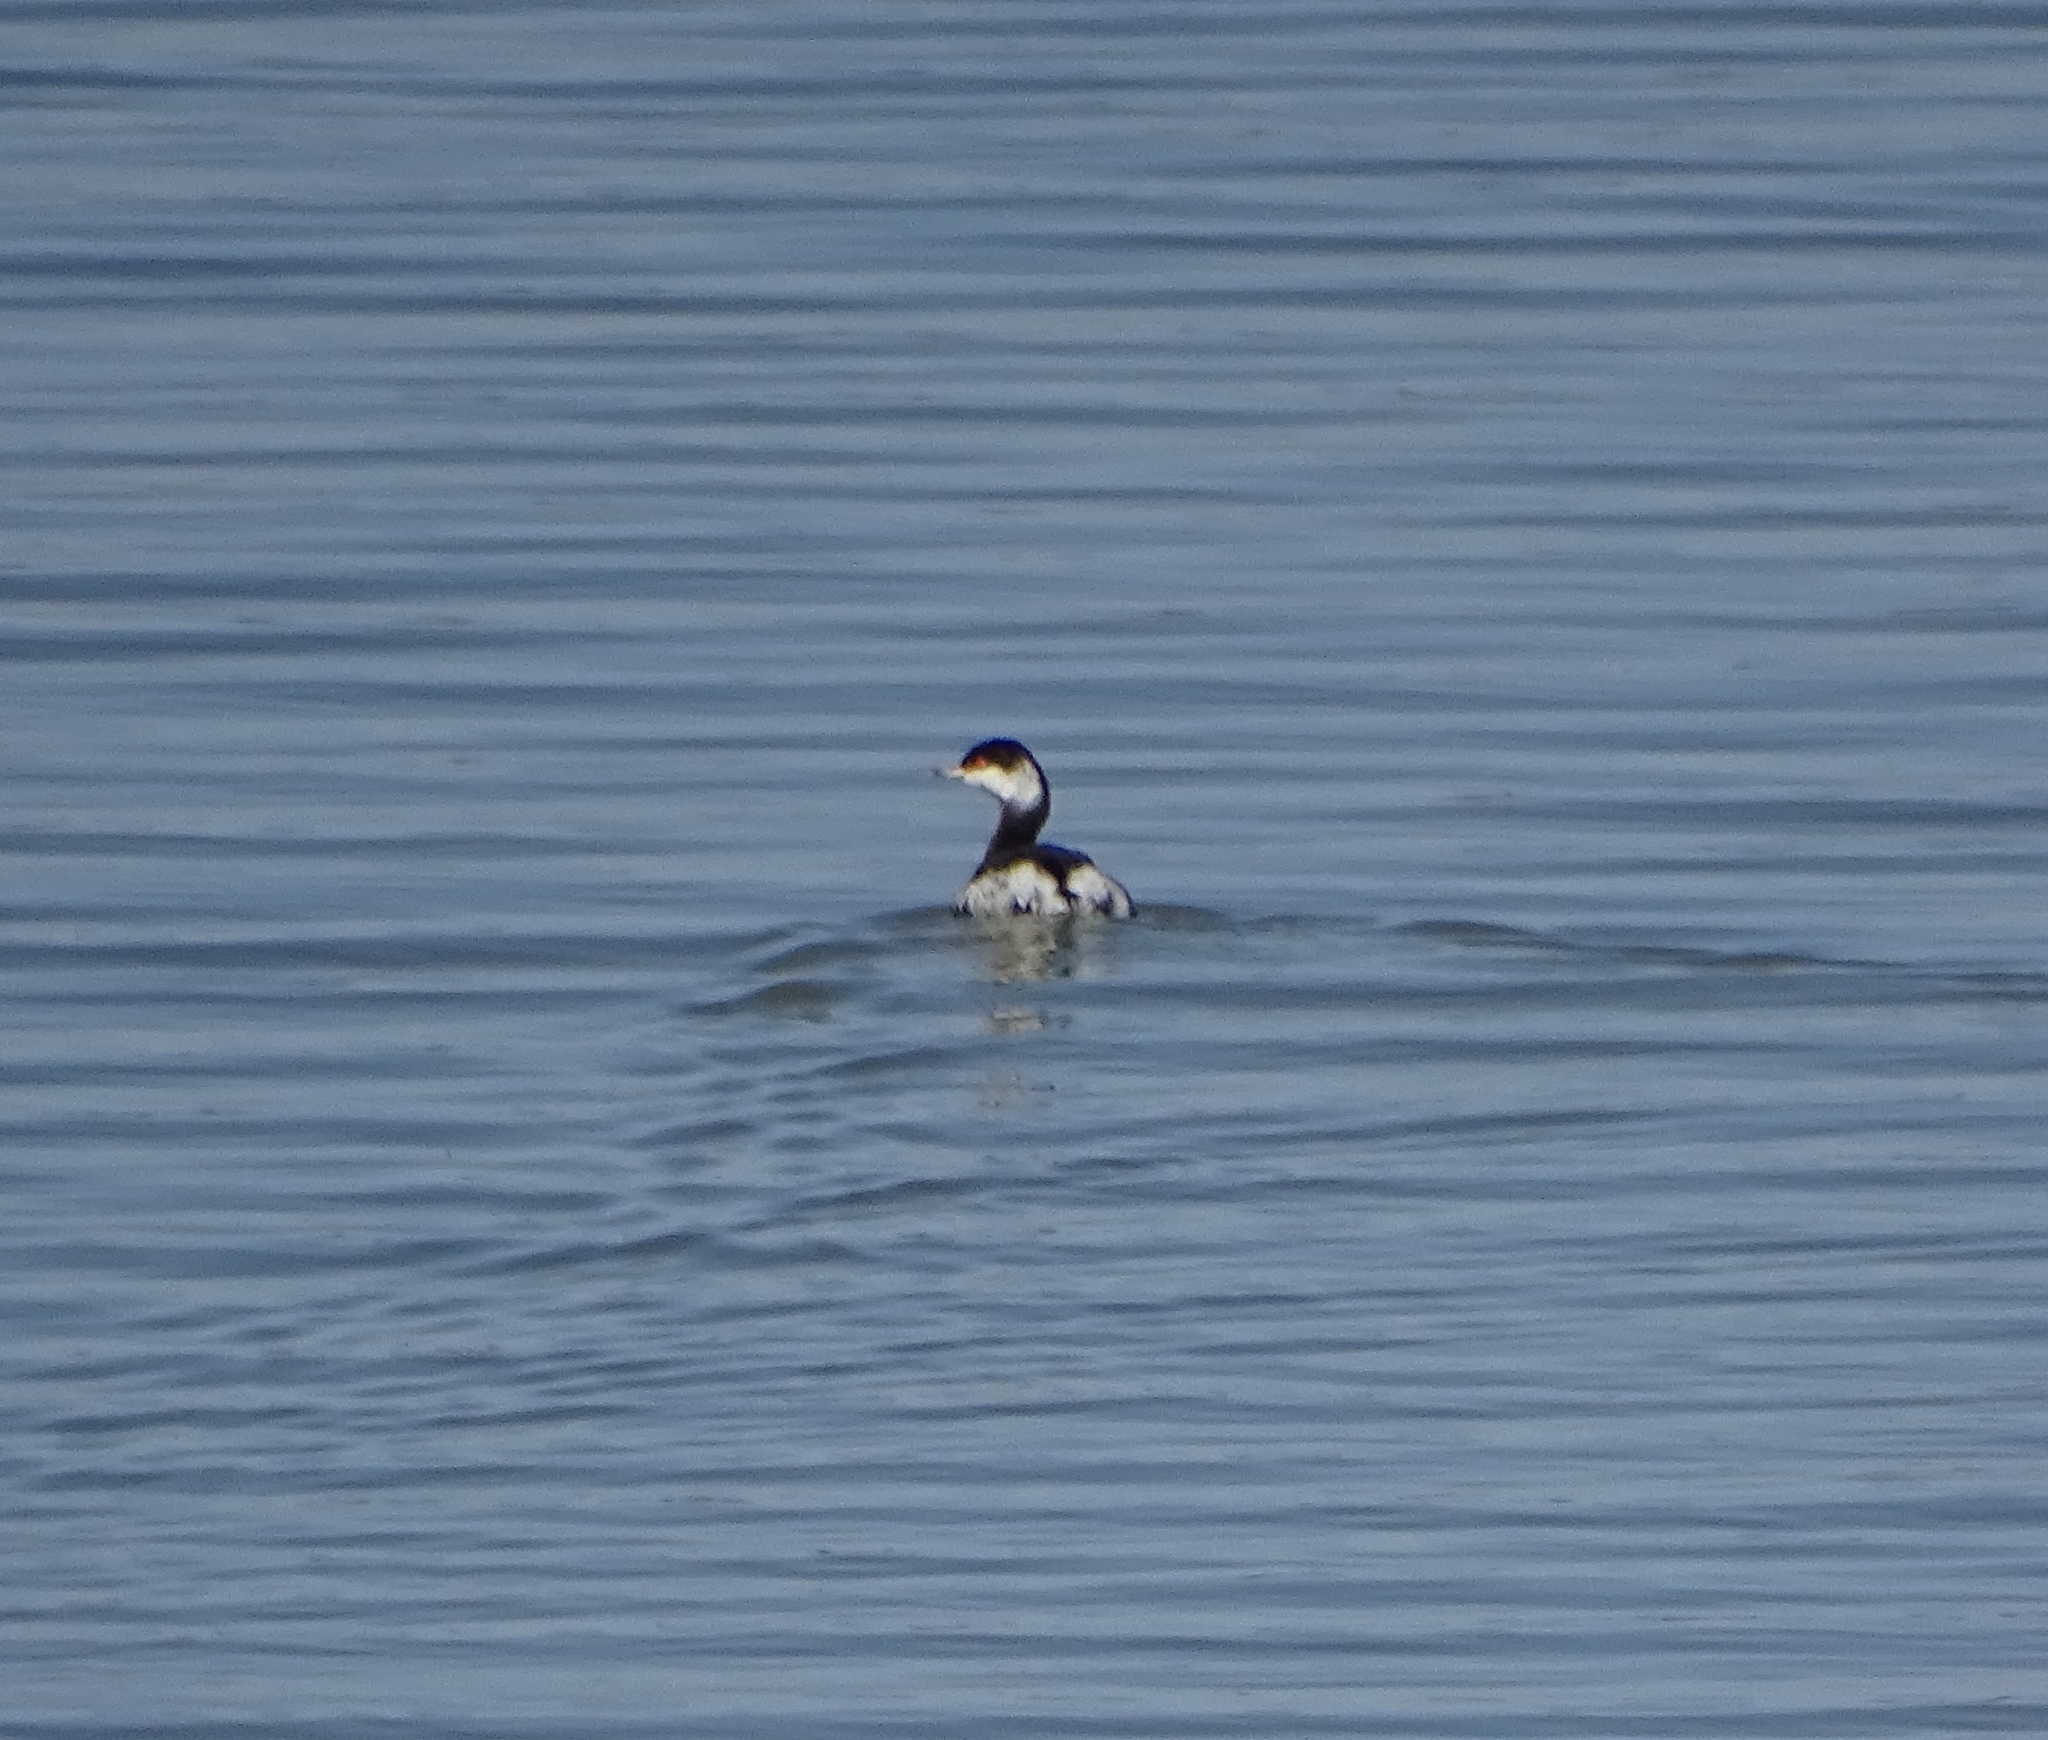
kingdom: Animalia
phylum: Chordata
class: Aves
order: Podicipediformes
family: Podicipedidae
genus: Podiceps
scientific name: Podiceps auritus
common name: Horned grebe
